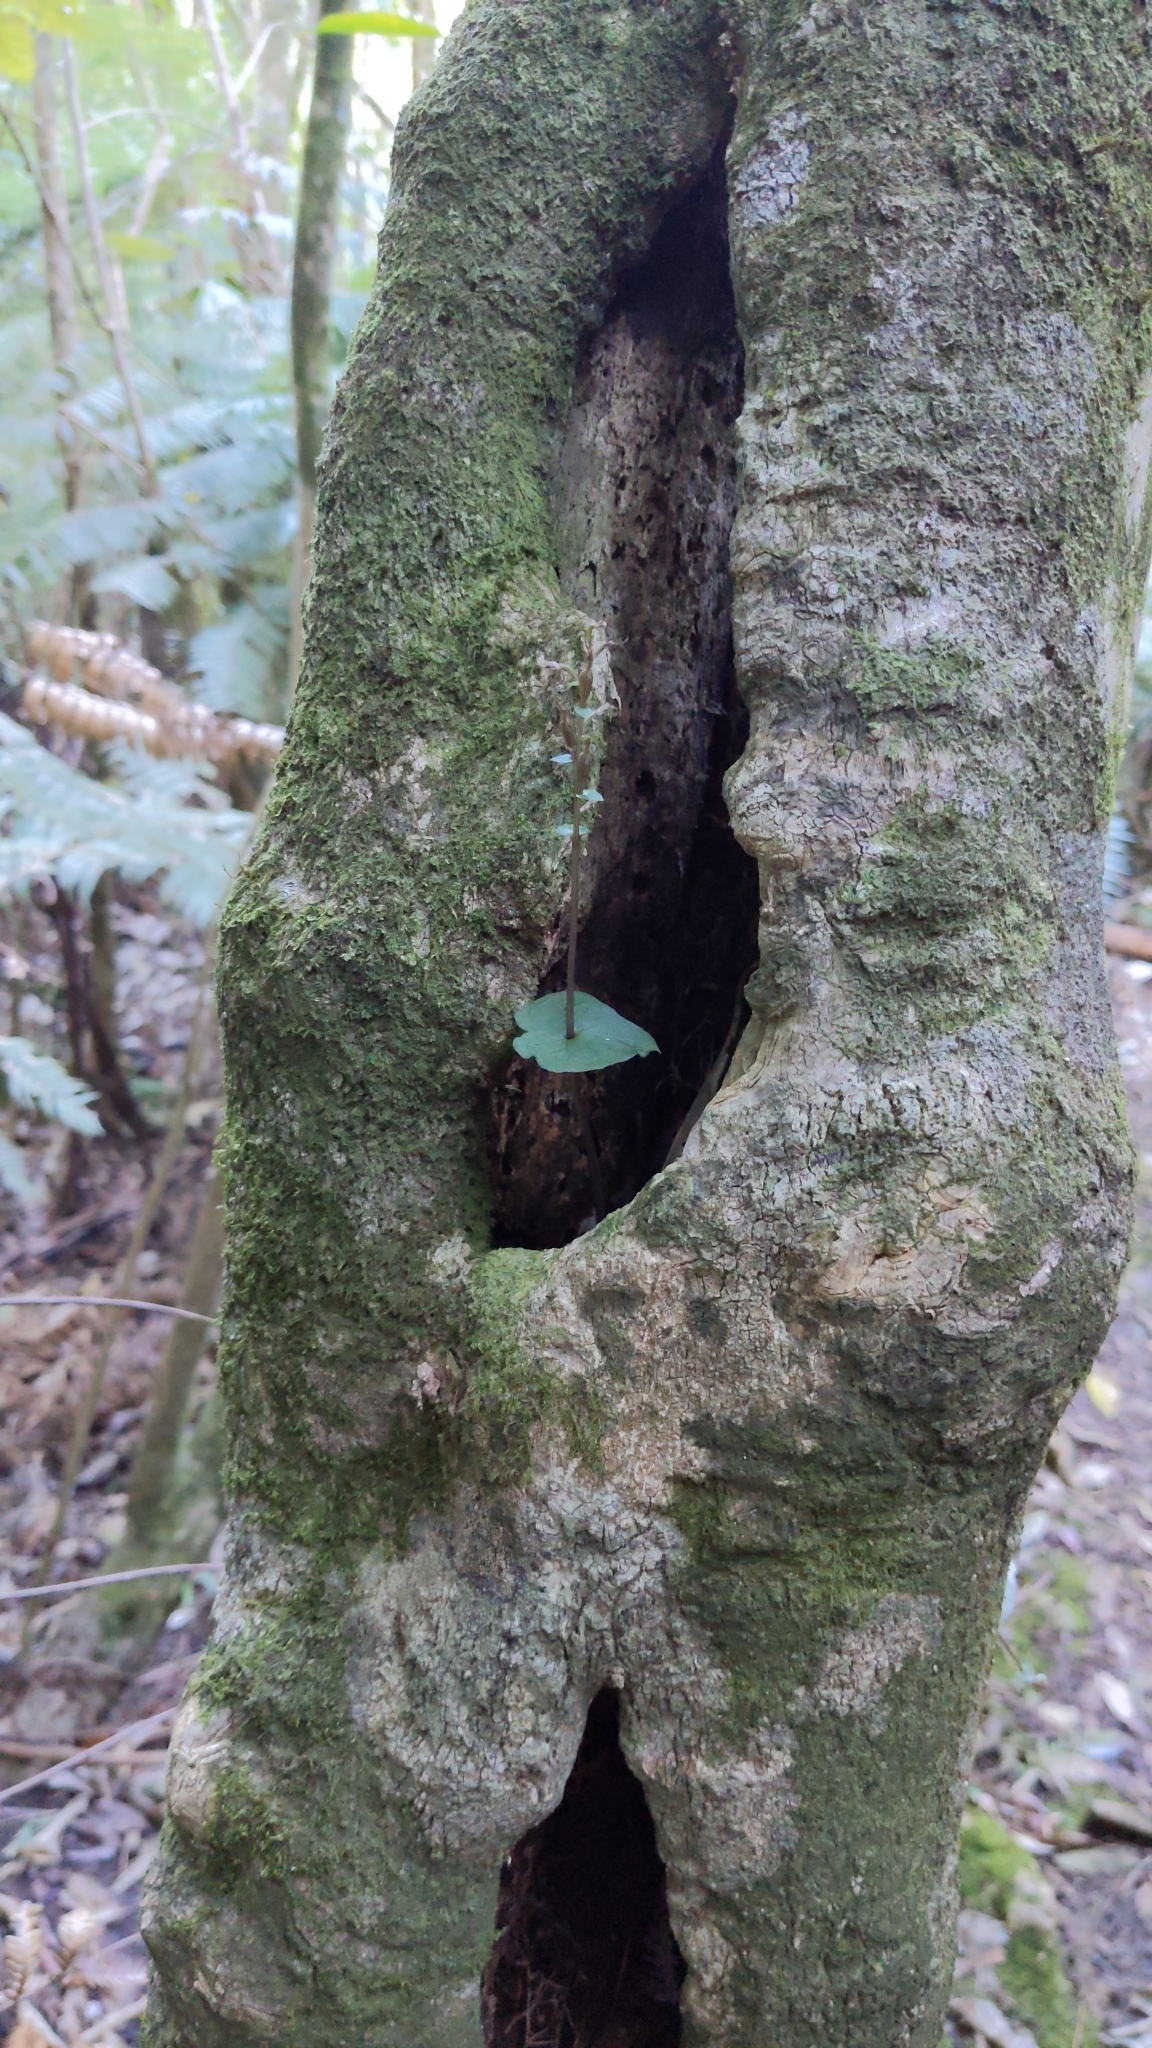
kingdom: Plantae
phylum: Tracheophyta
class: Liliopsida
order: Asparagales
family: Orchidaceae
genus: Acianthus
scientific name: Acianthus sinclairii
